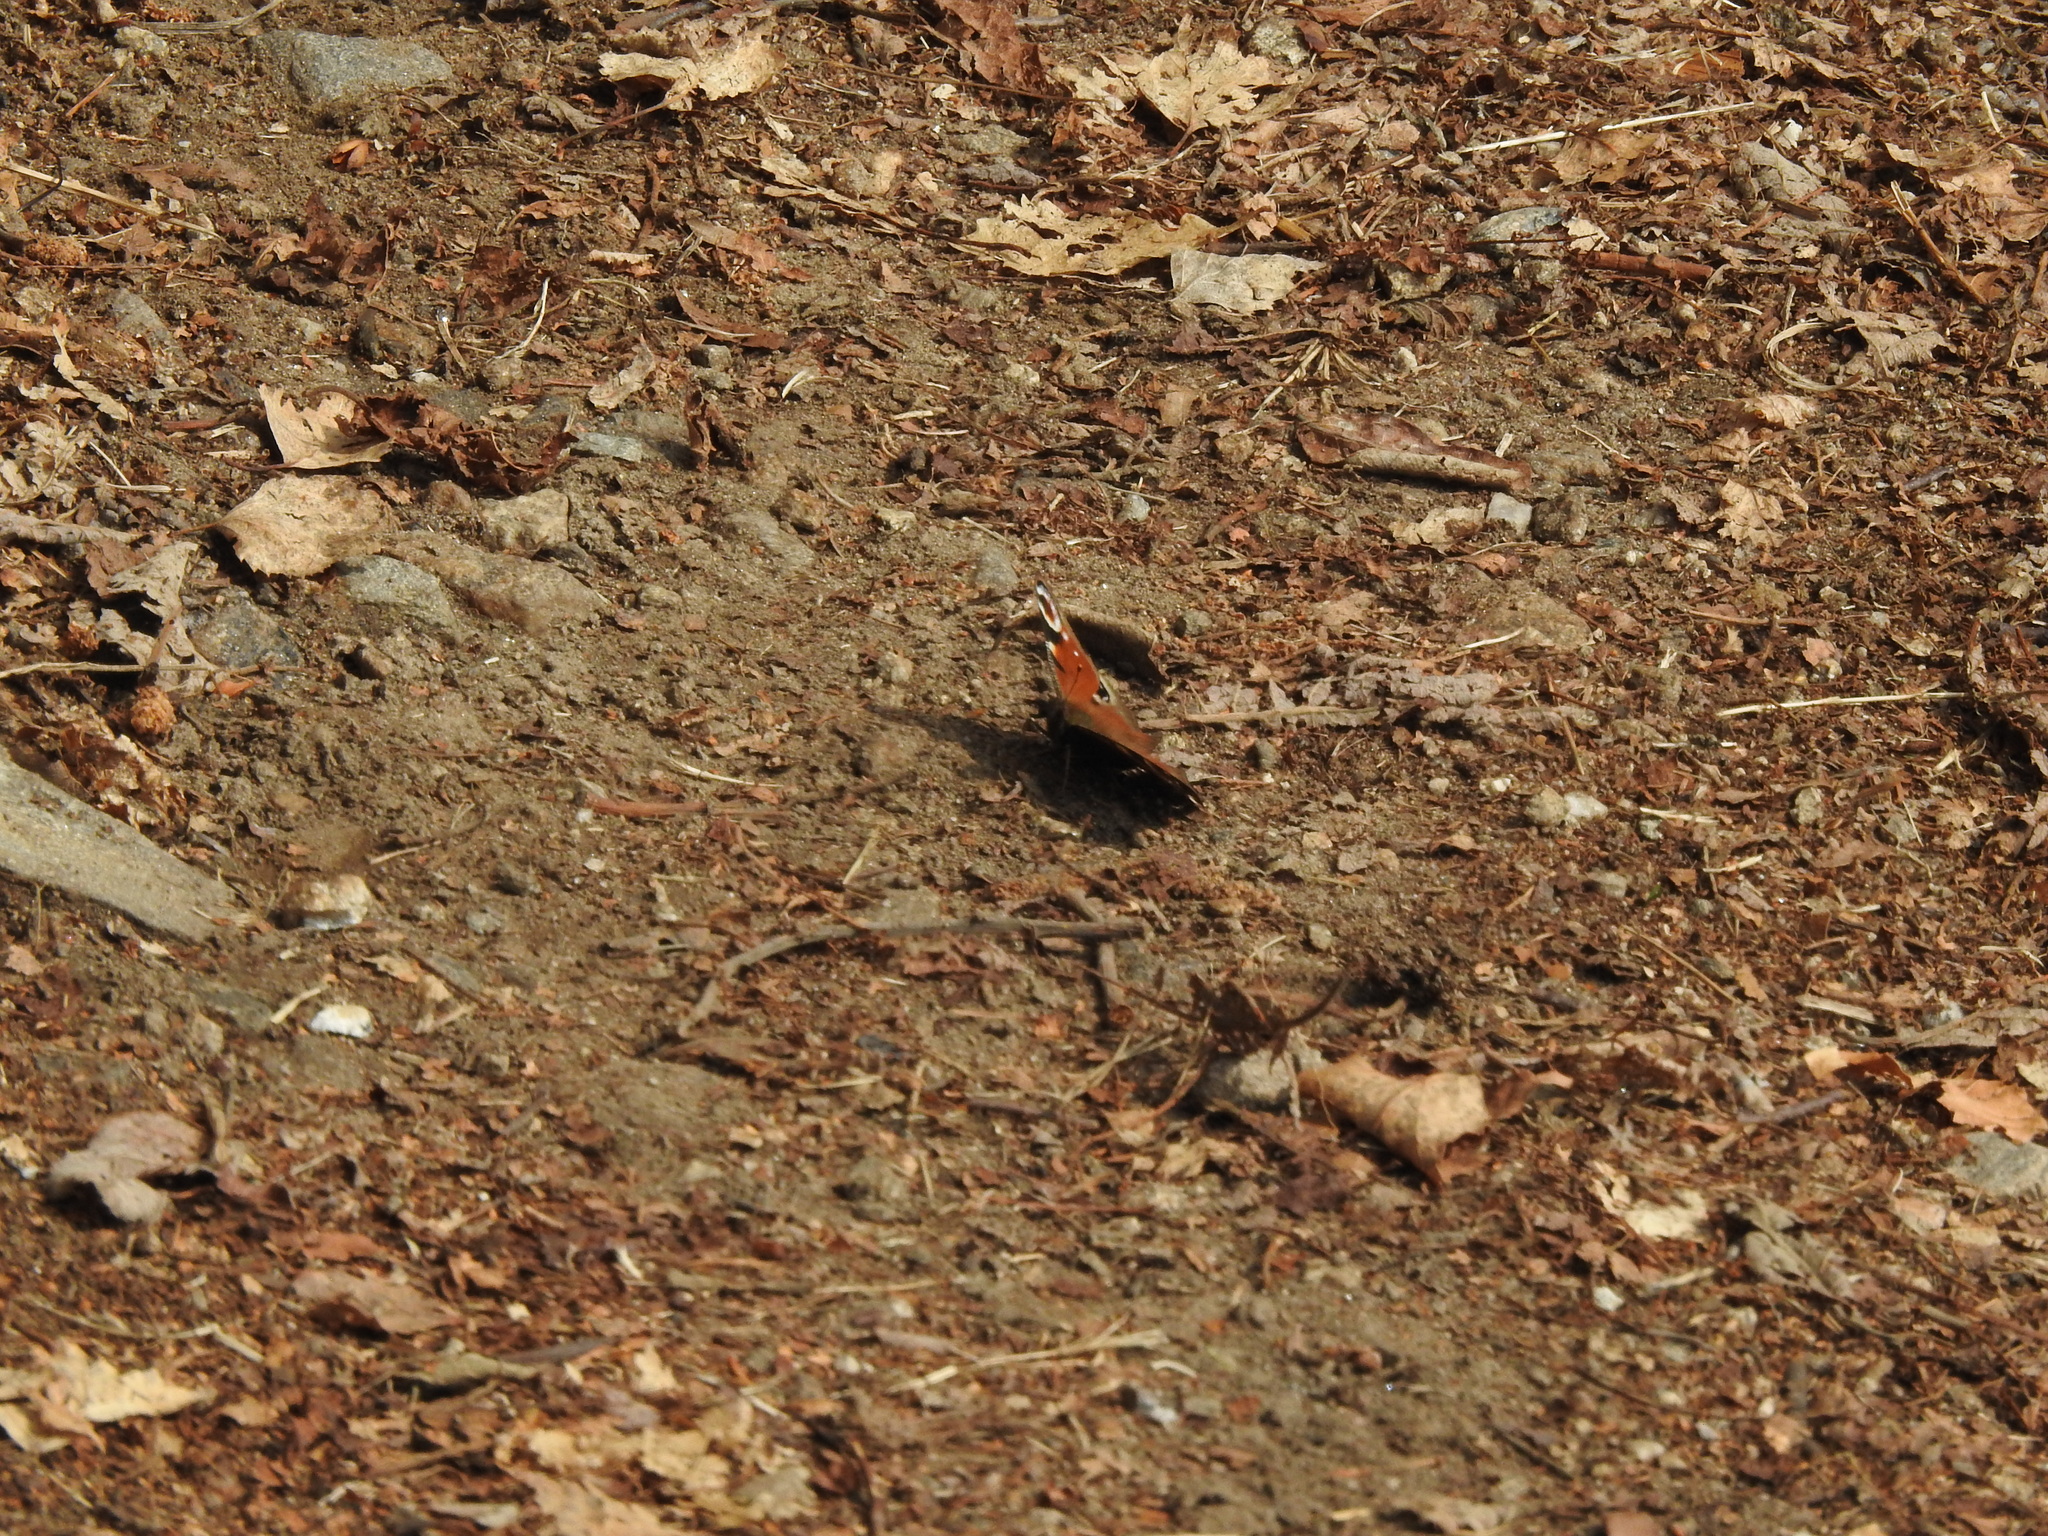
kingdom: Animalia
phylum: Arthropoda
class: Insecta
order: Lepidoptera
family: Nymphalidae
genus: Aglais
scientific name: Aglais io
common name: Peacock
